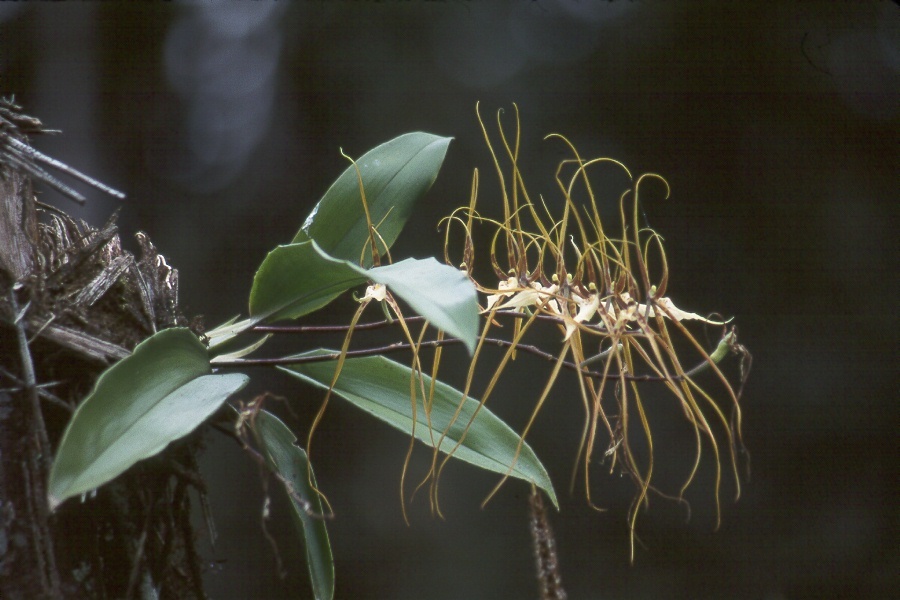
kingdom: Plantae
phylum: Tracheophyta
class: Liliopsida
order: Asparagales
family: Orchidaceae
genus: Brassia
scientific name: Brassia arcuigera
